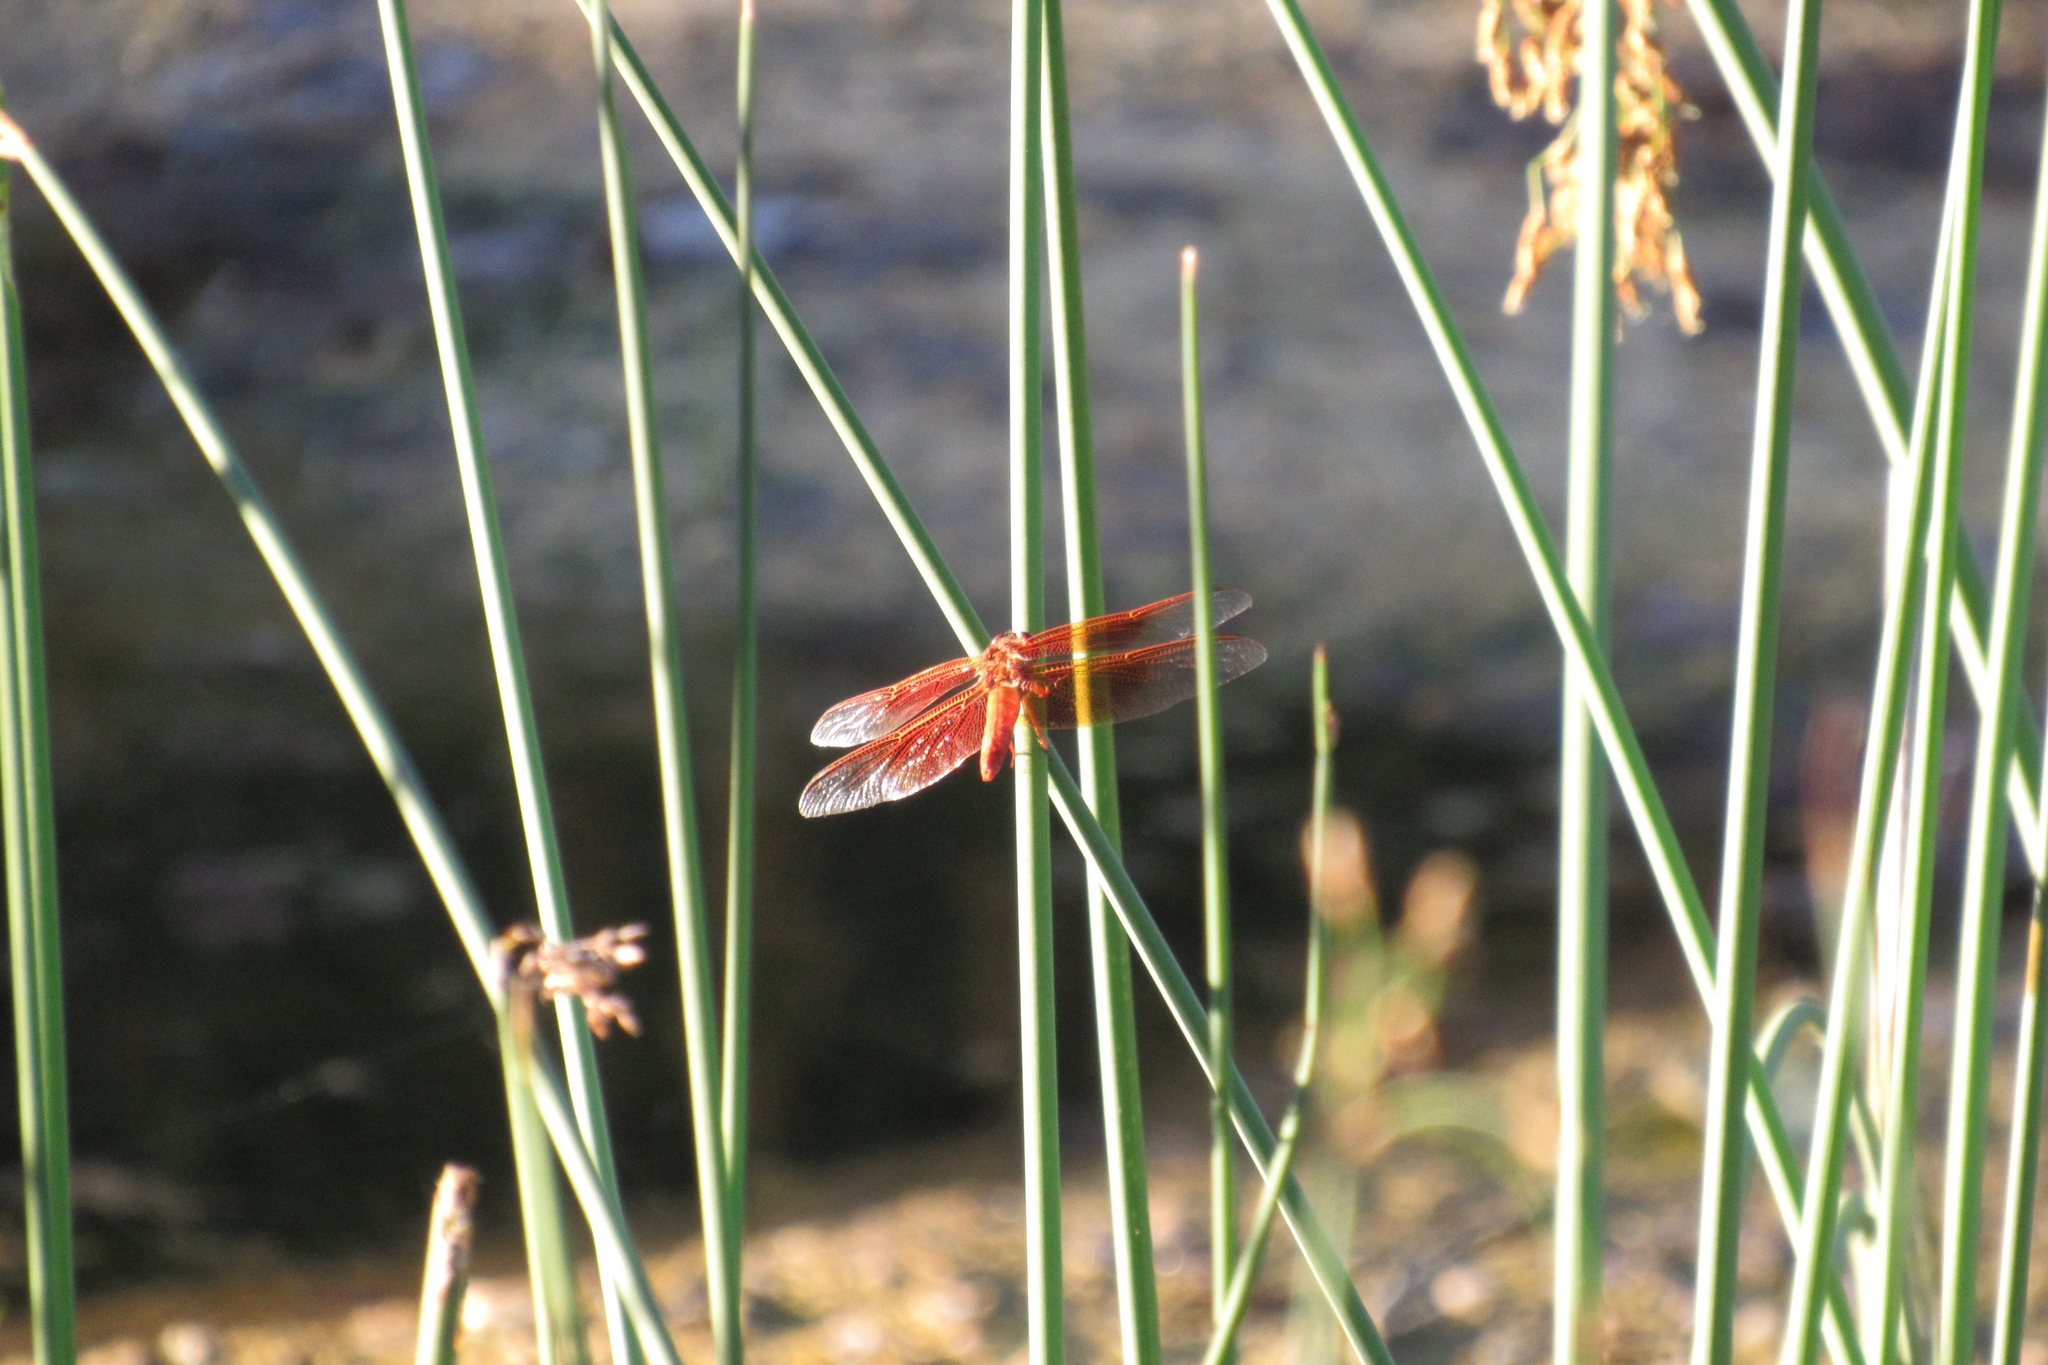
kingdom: Animalia
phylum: Arthropoda
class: Insecta
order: Odonata
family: Libellulidae
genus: Libellula
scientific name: Libellula saturata
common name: Flame skimmer
